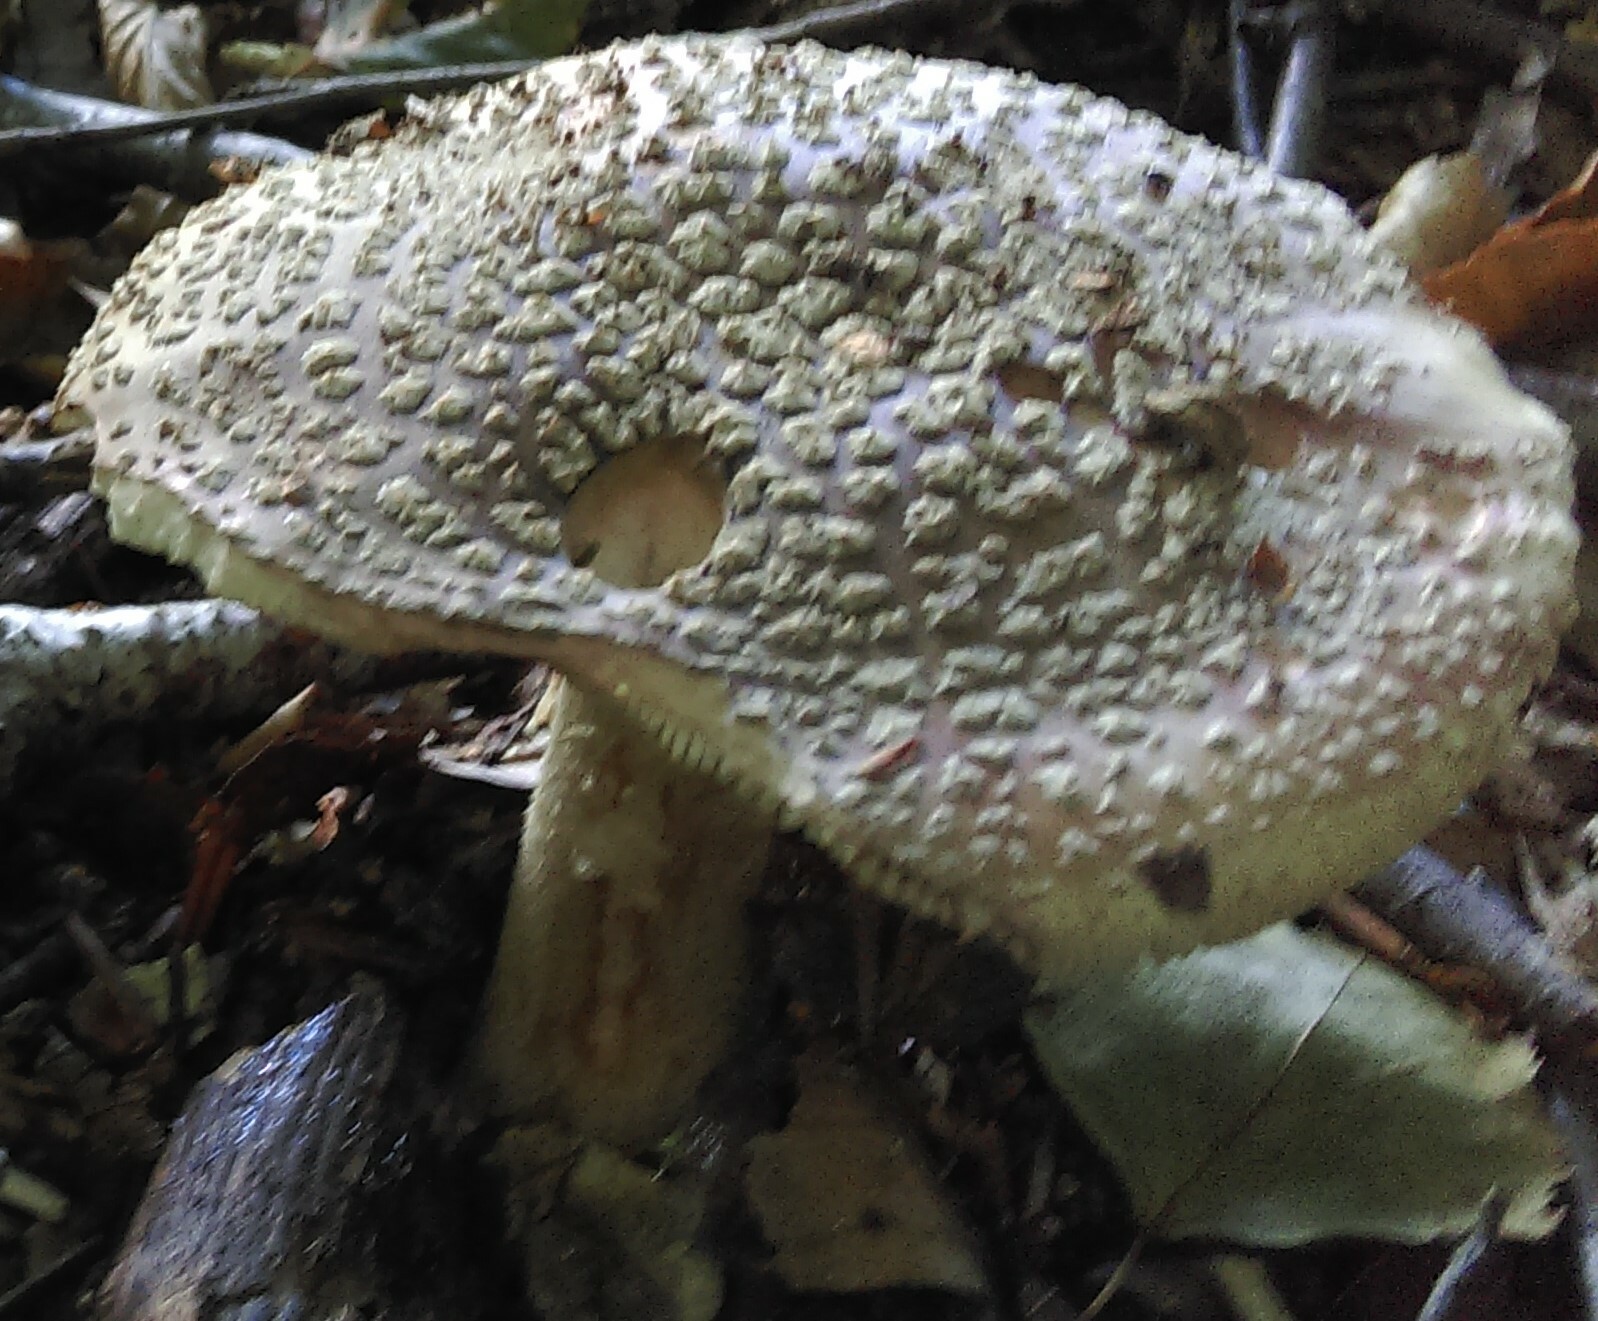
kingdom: Fungi
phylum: Basidiomycota
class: Agaricomycetes
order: Agaricales
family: Amanitaceae
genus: Amanita
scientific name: Amanita rubescens
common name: Blusher
